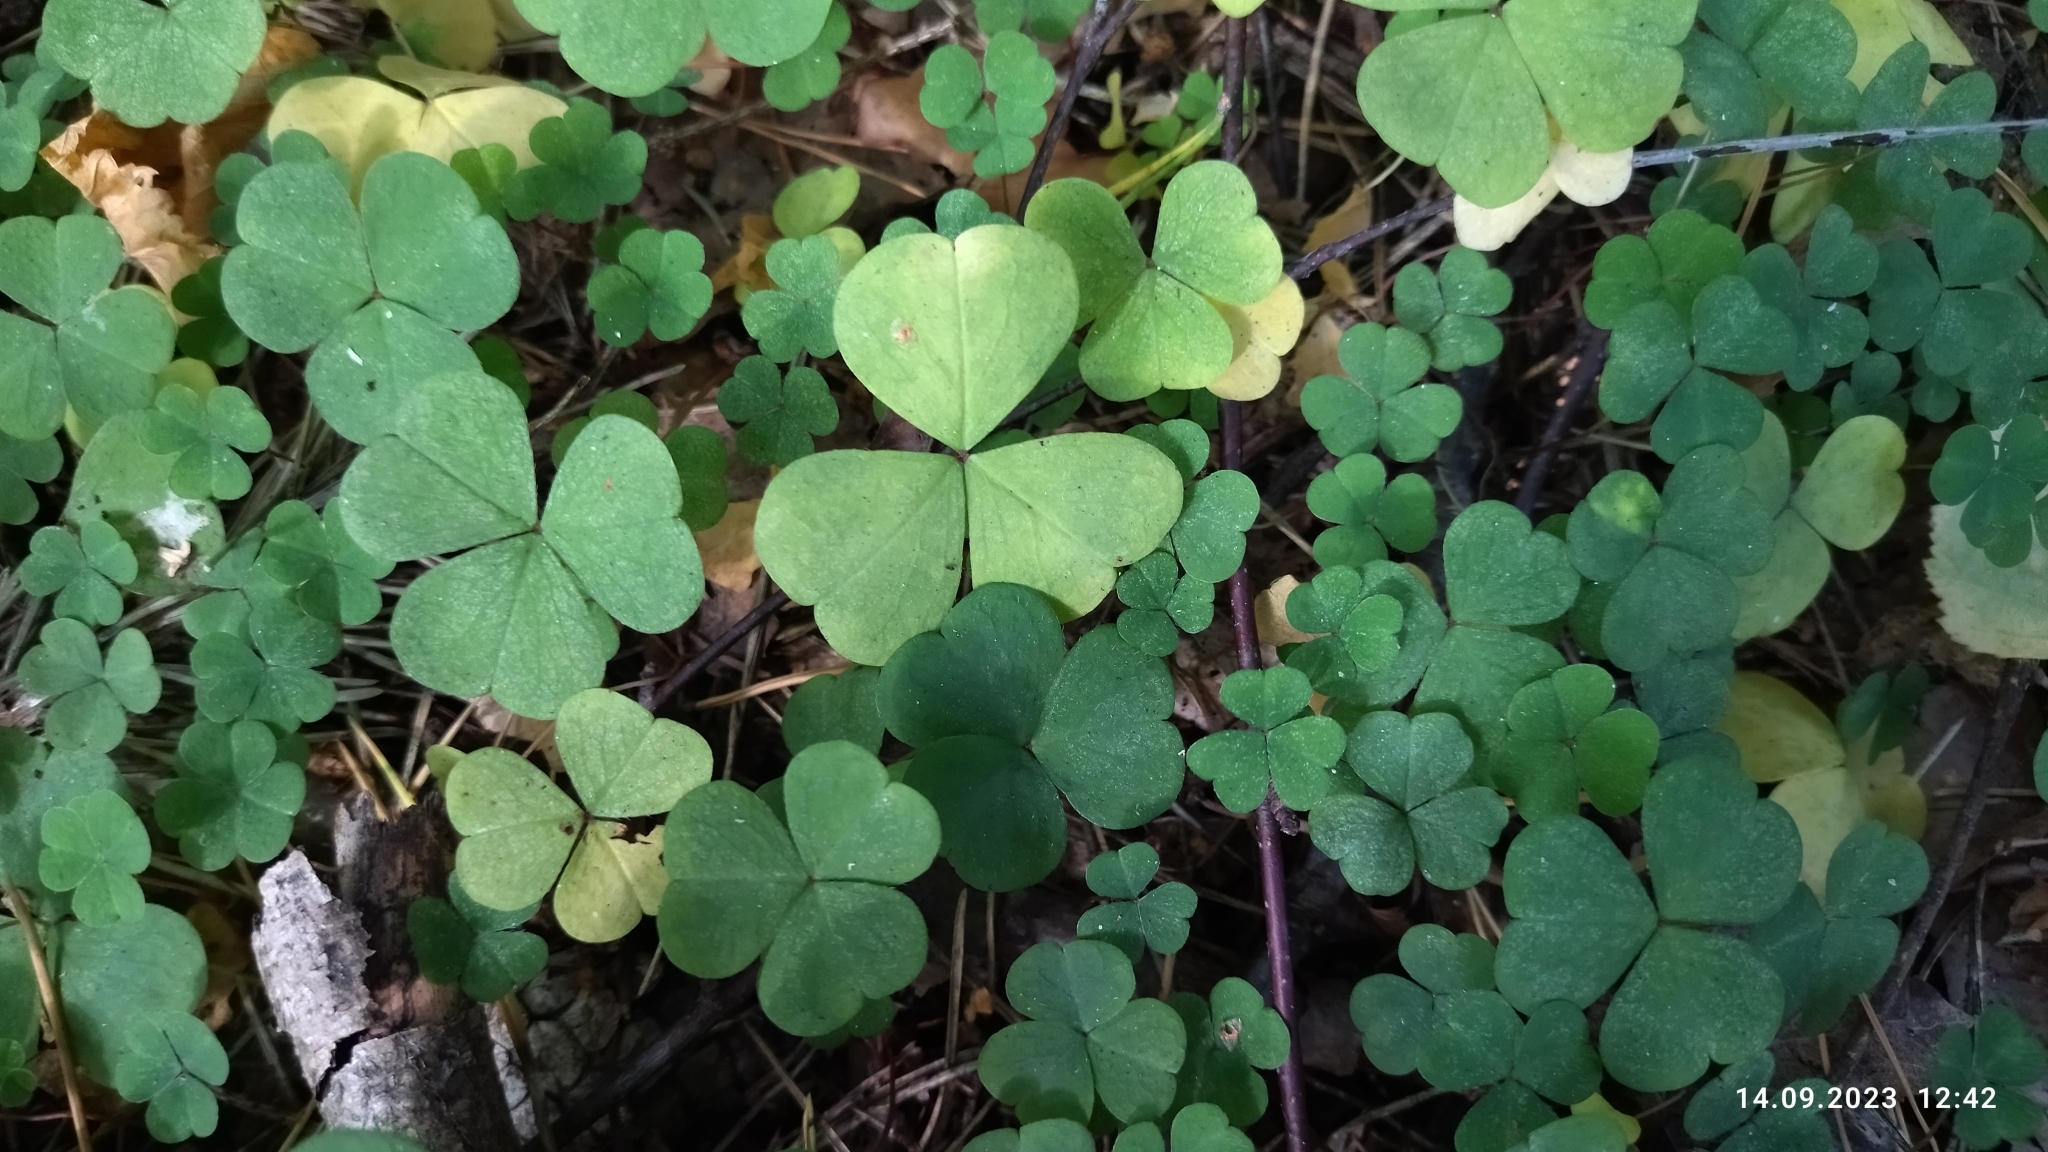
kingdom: Plantae
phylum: Tracheophyta
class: Magnoliopsida
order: Oxalidales
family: Oxalidaceae
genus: Oxalis
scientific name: Oxalis acetosella
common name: Wood-sorrel
